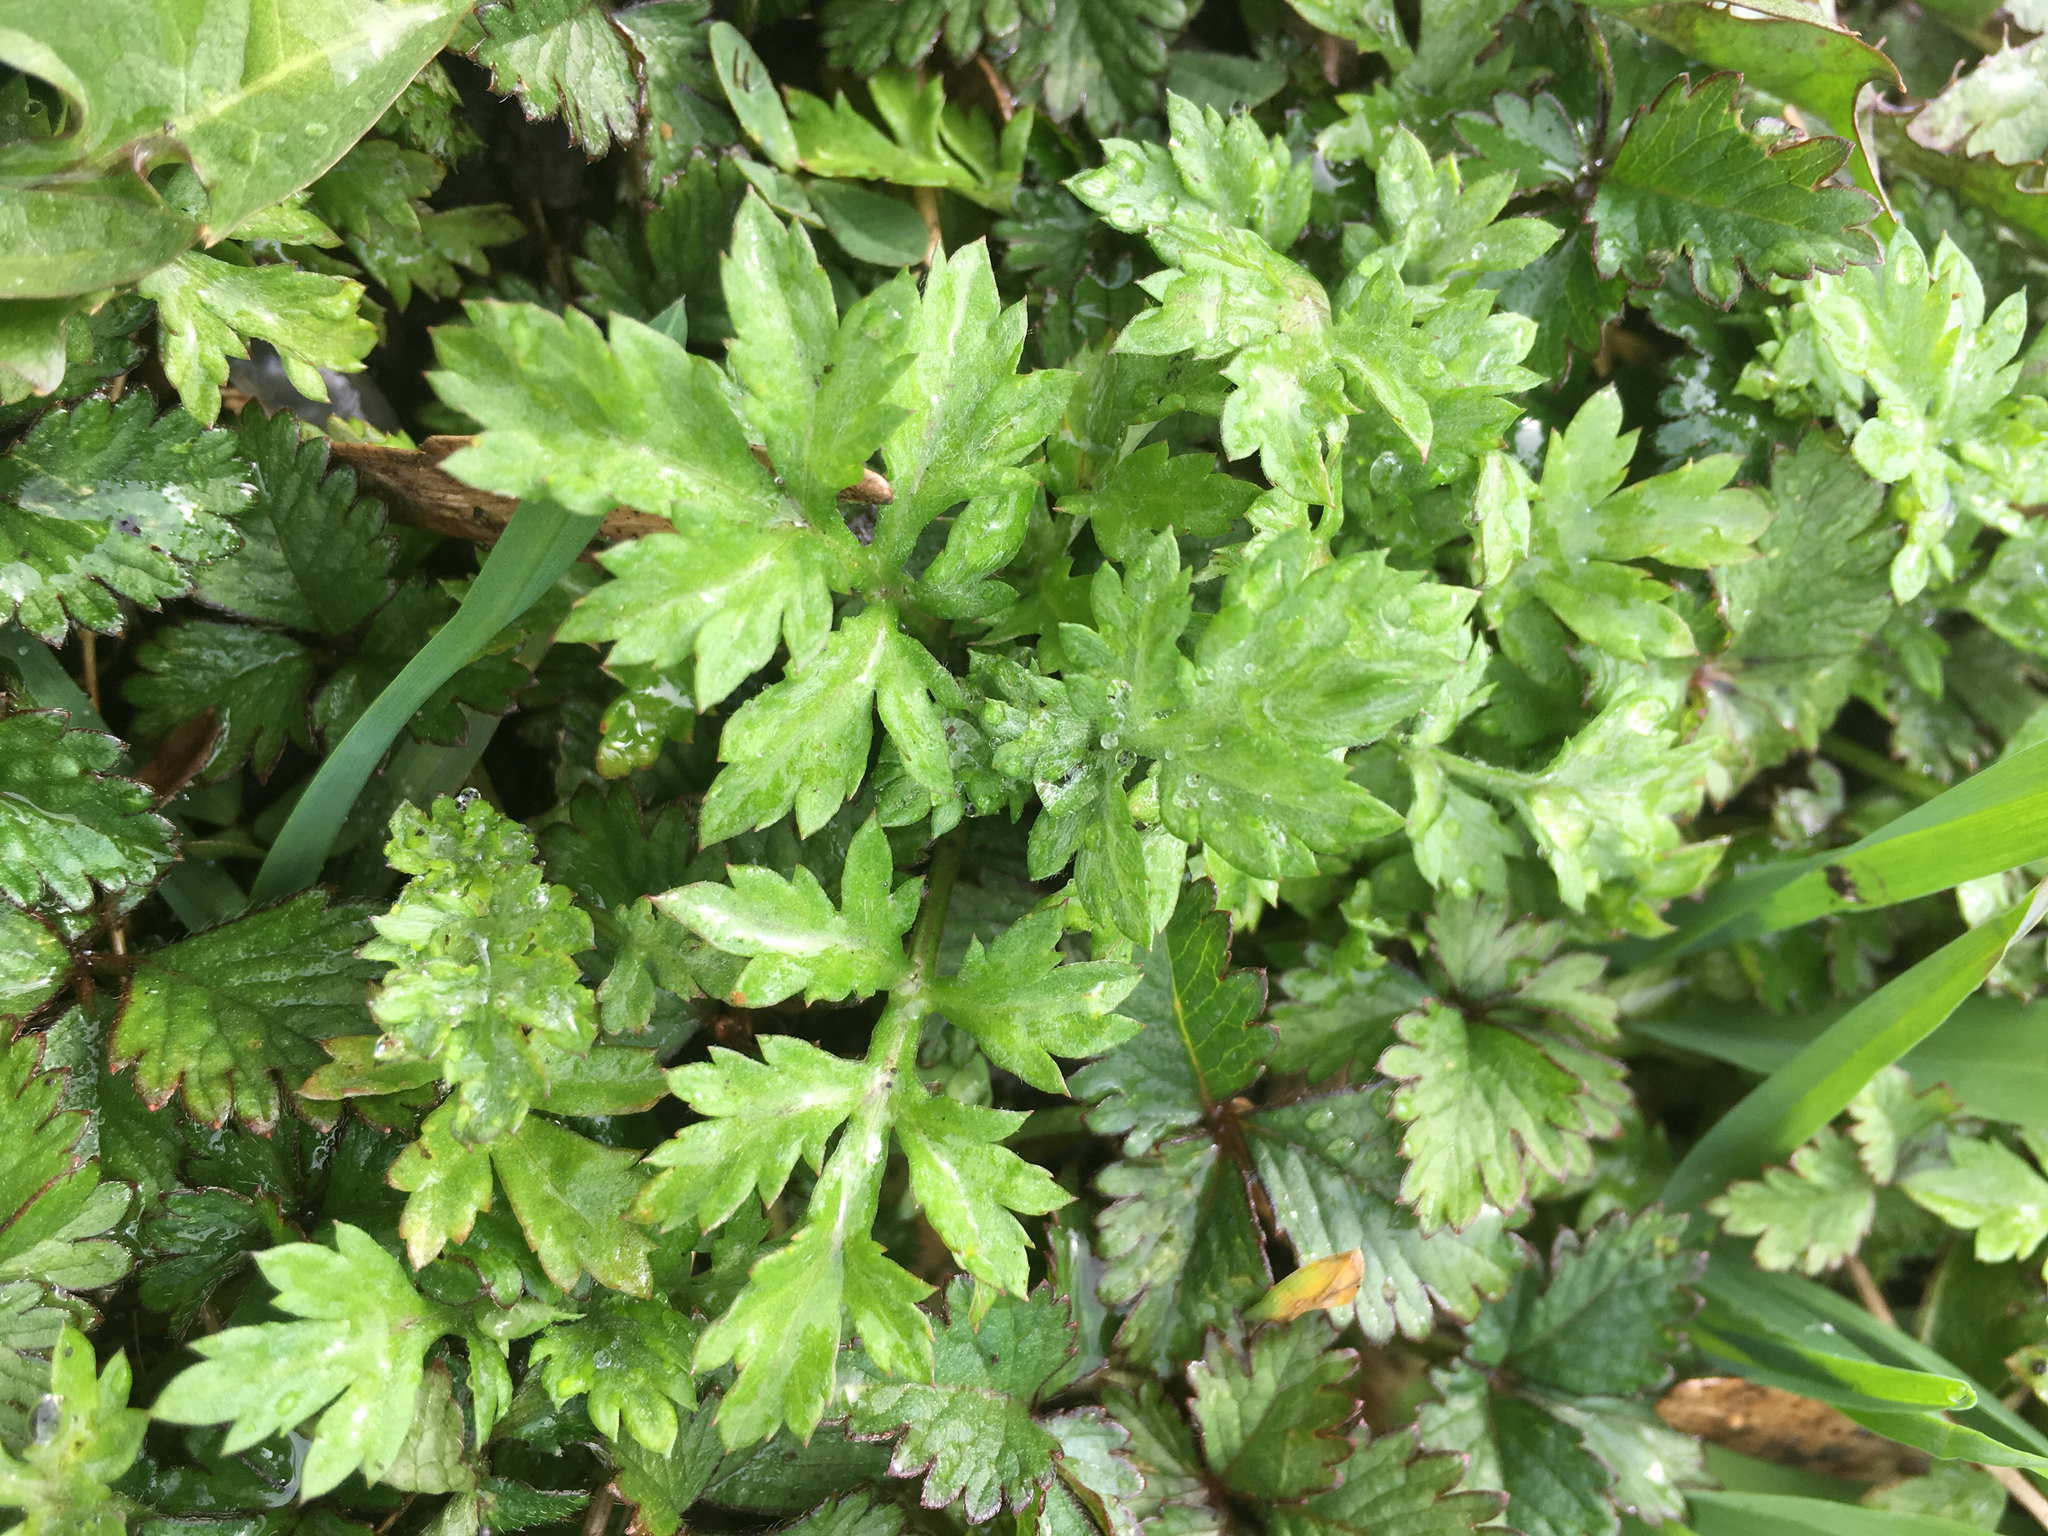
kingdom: Plantae
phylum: Tracheophyta
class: Magnoliopsida
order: Asterales
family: Asteraceae
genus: Artemisia
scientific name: Artemisia vulgaris
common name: Mugwort
